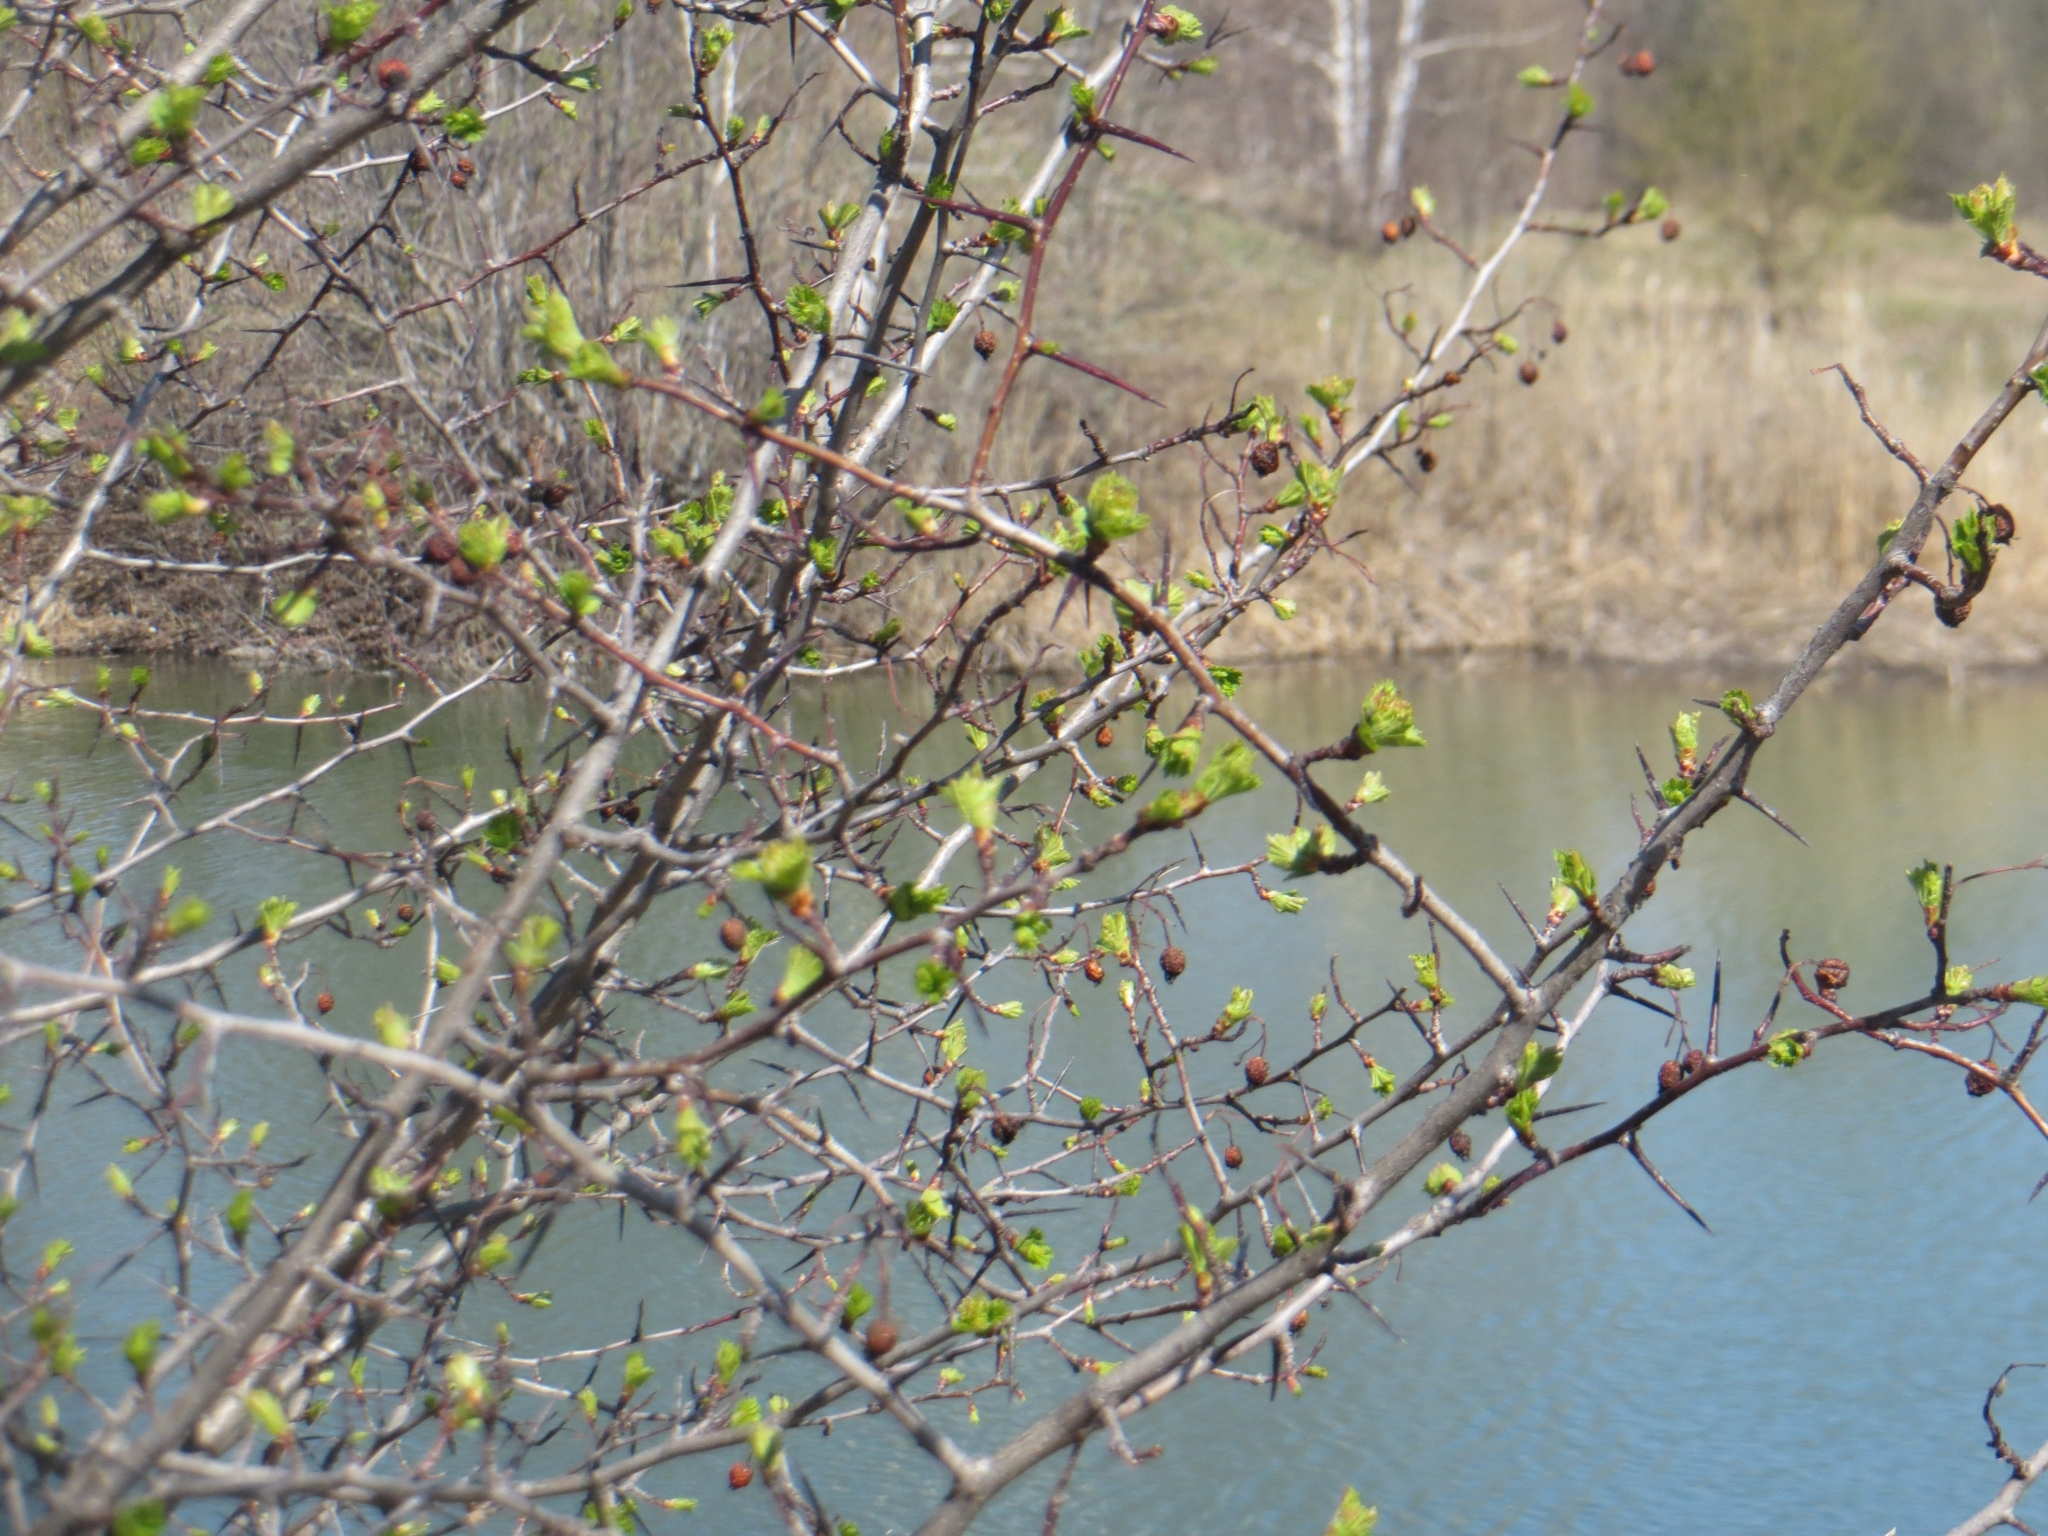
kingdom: Plantae
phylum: Tracheophyta
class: Magnoliopsida
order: Rosales
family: Rosaceae
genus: Crataegus
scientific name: Crataegus sanguinea
